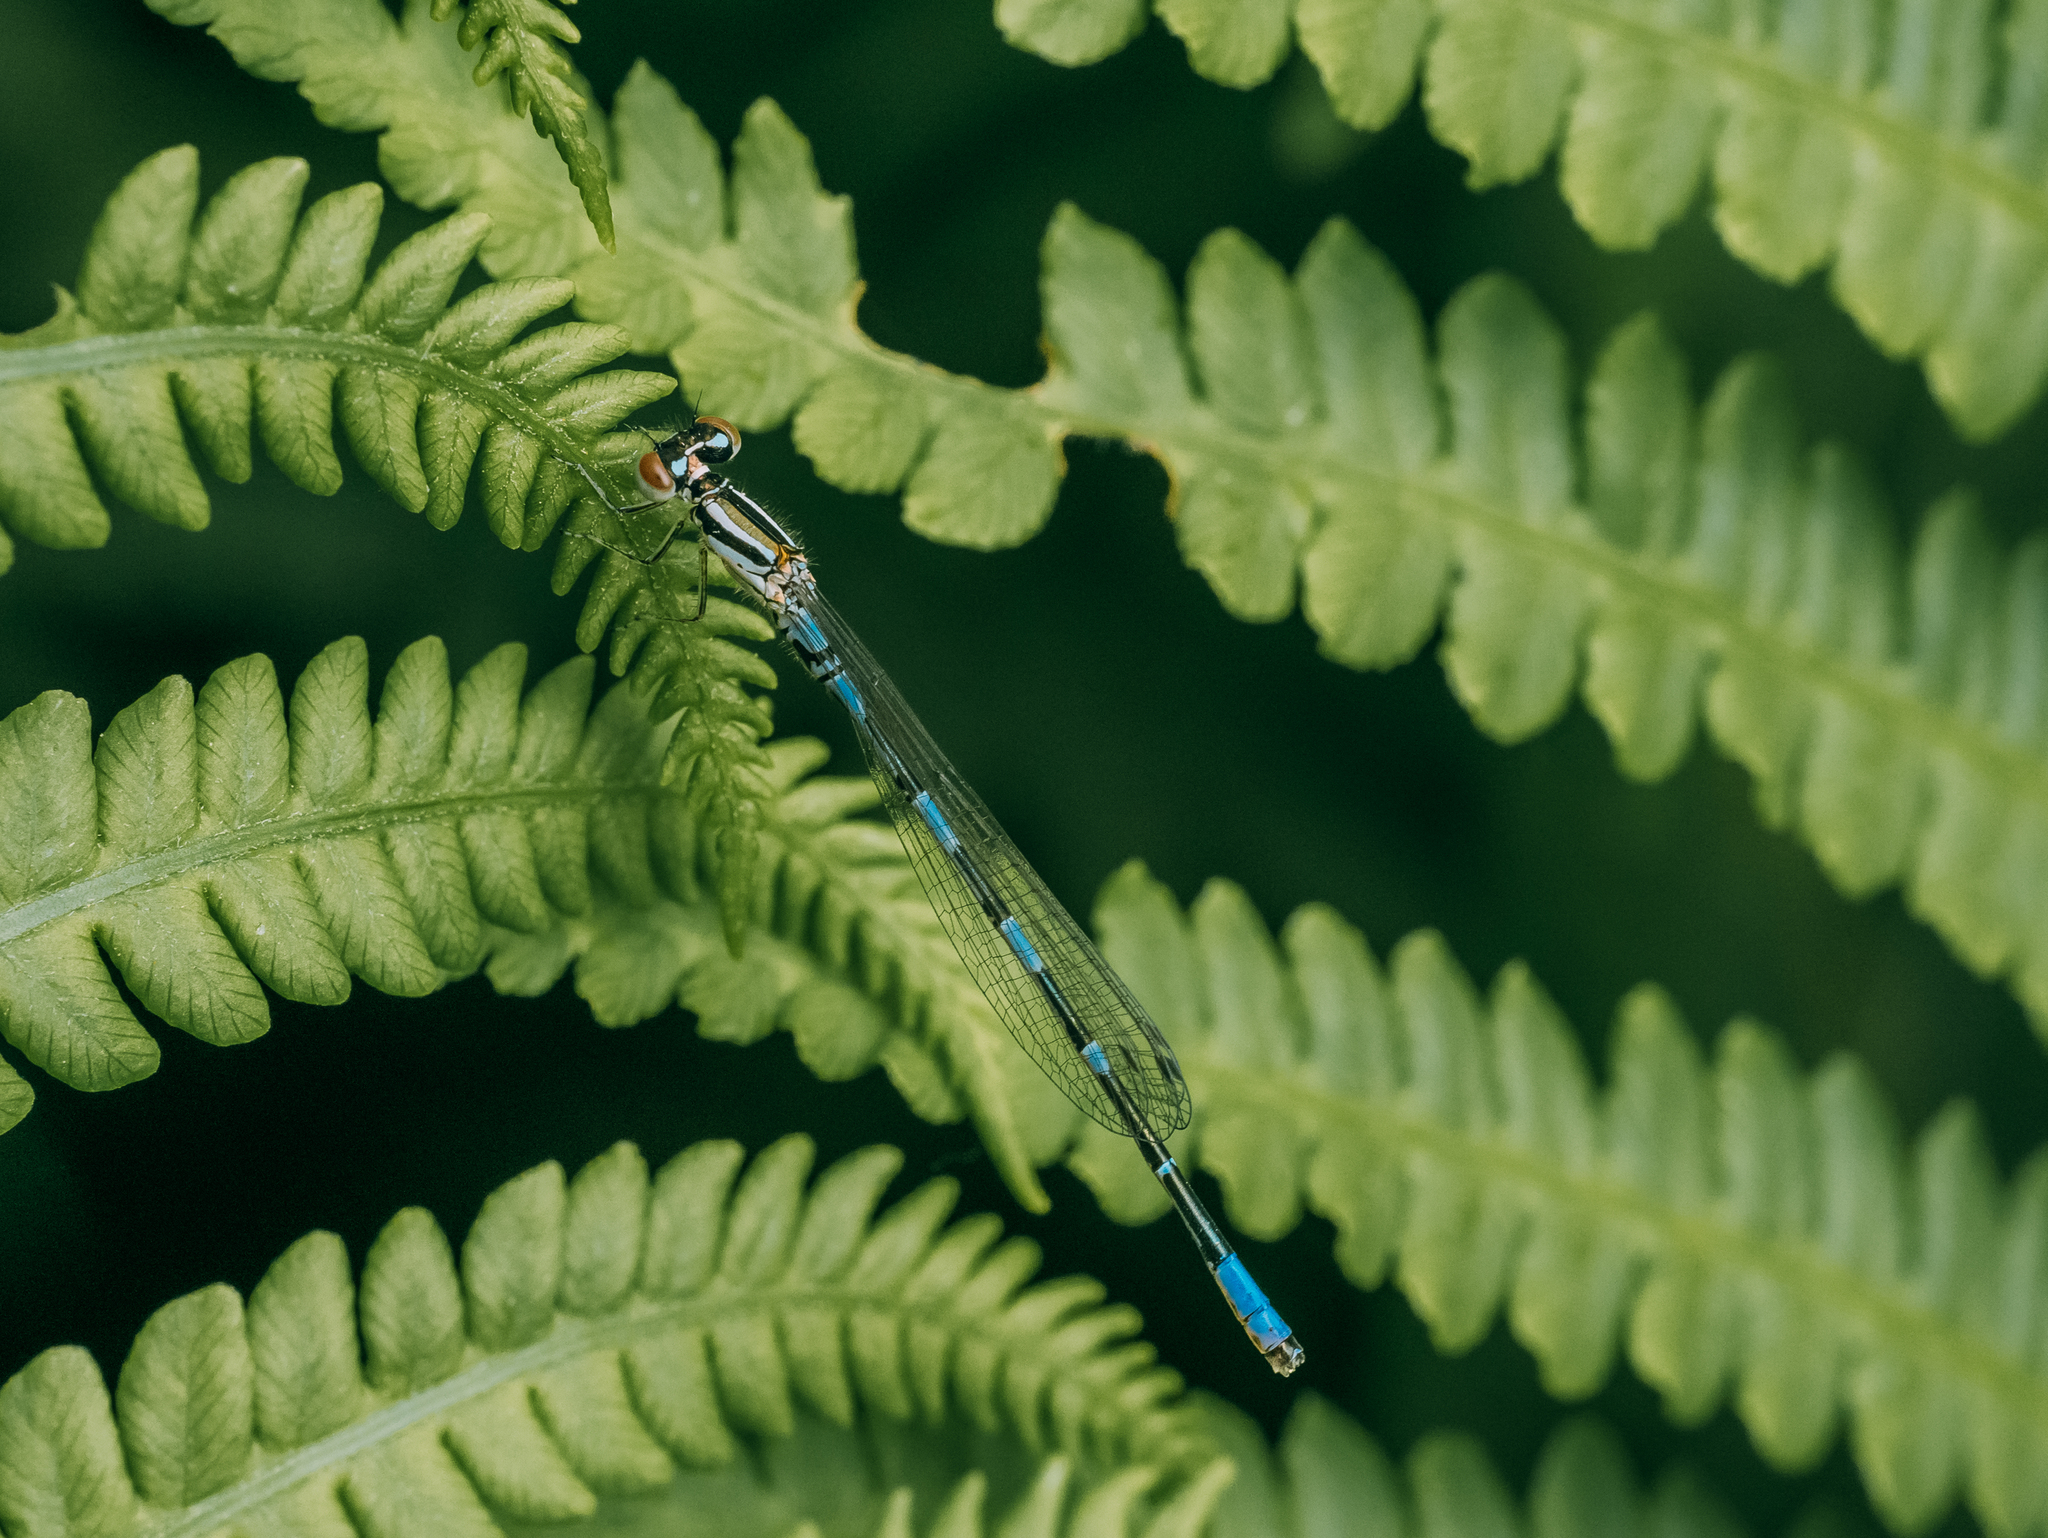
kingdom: Animalia
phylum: Arthropoda
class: Insecta
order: Odonata
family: Coenagrionidae
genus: Coenagrion
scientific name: Coenagrion johanssoni
